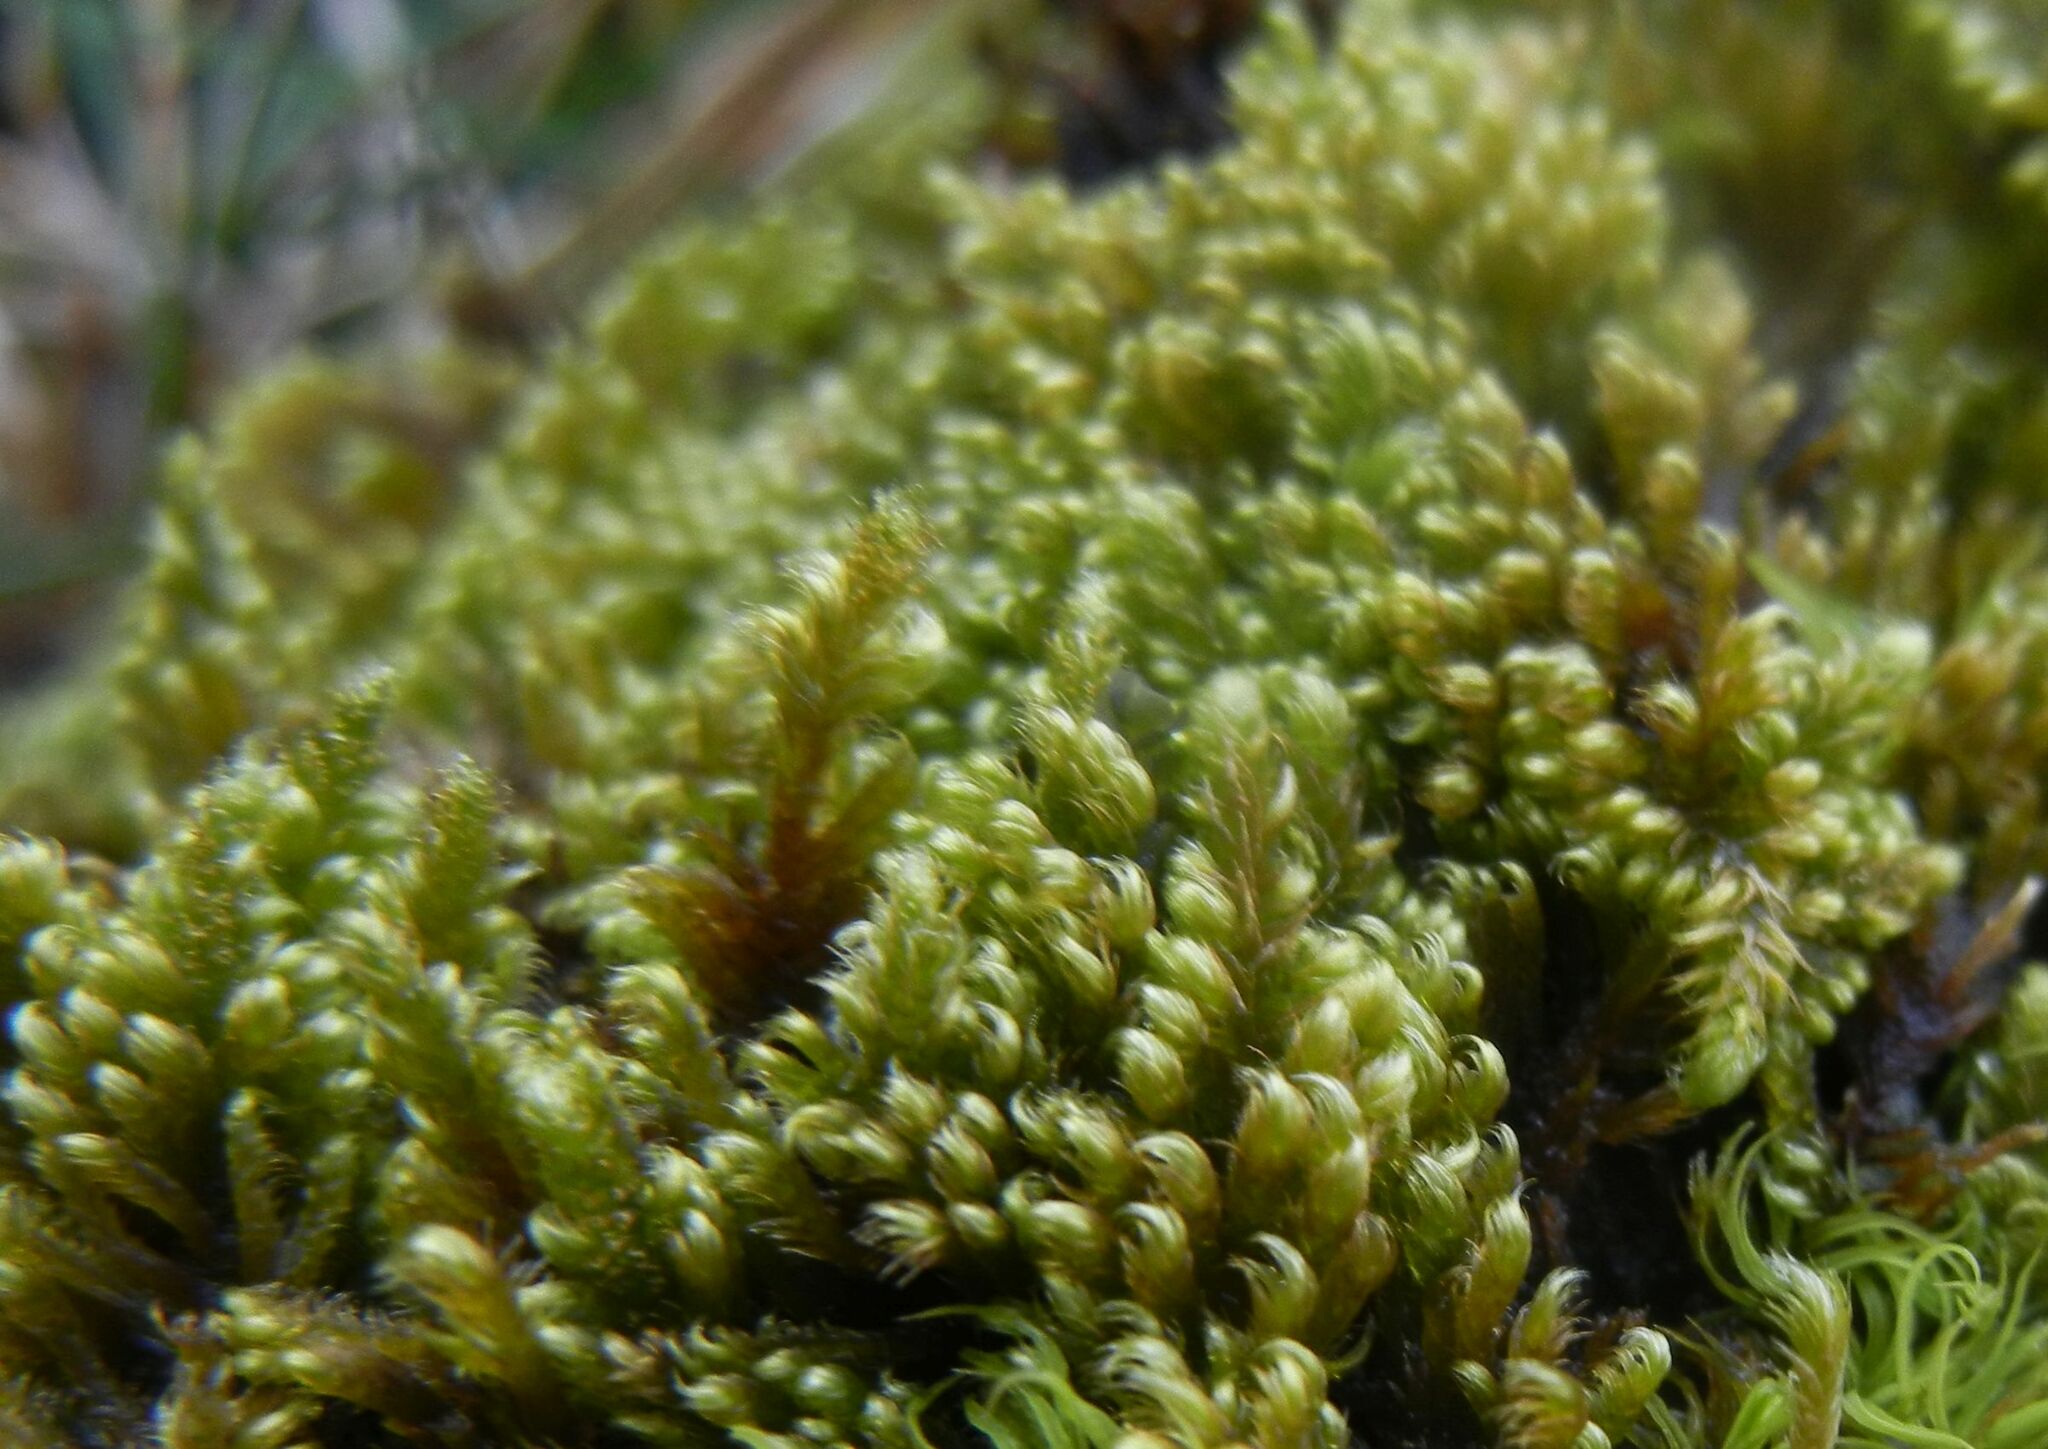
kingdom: Plantae
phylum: Bryophyta
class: Bryopsida
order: Hypnales
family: Myuriaceae
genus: Ctenidium
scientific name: Ctenidium molluscum
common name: Chalk comb-moss
